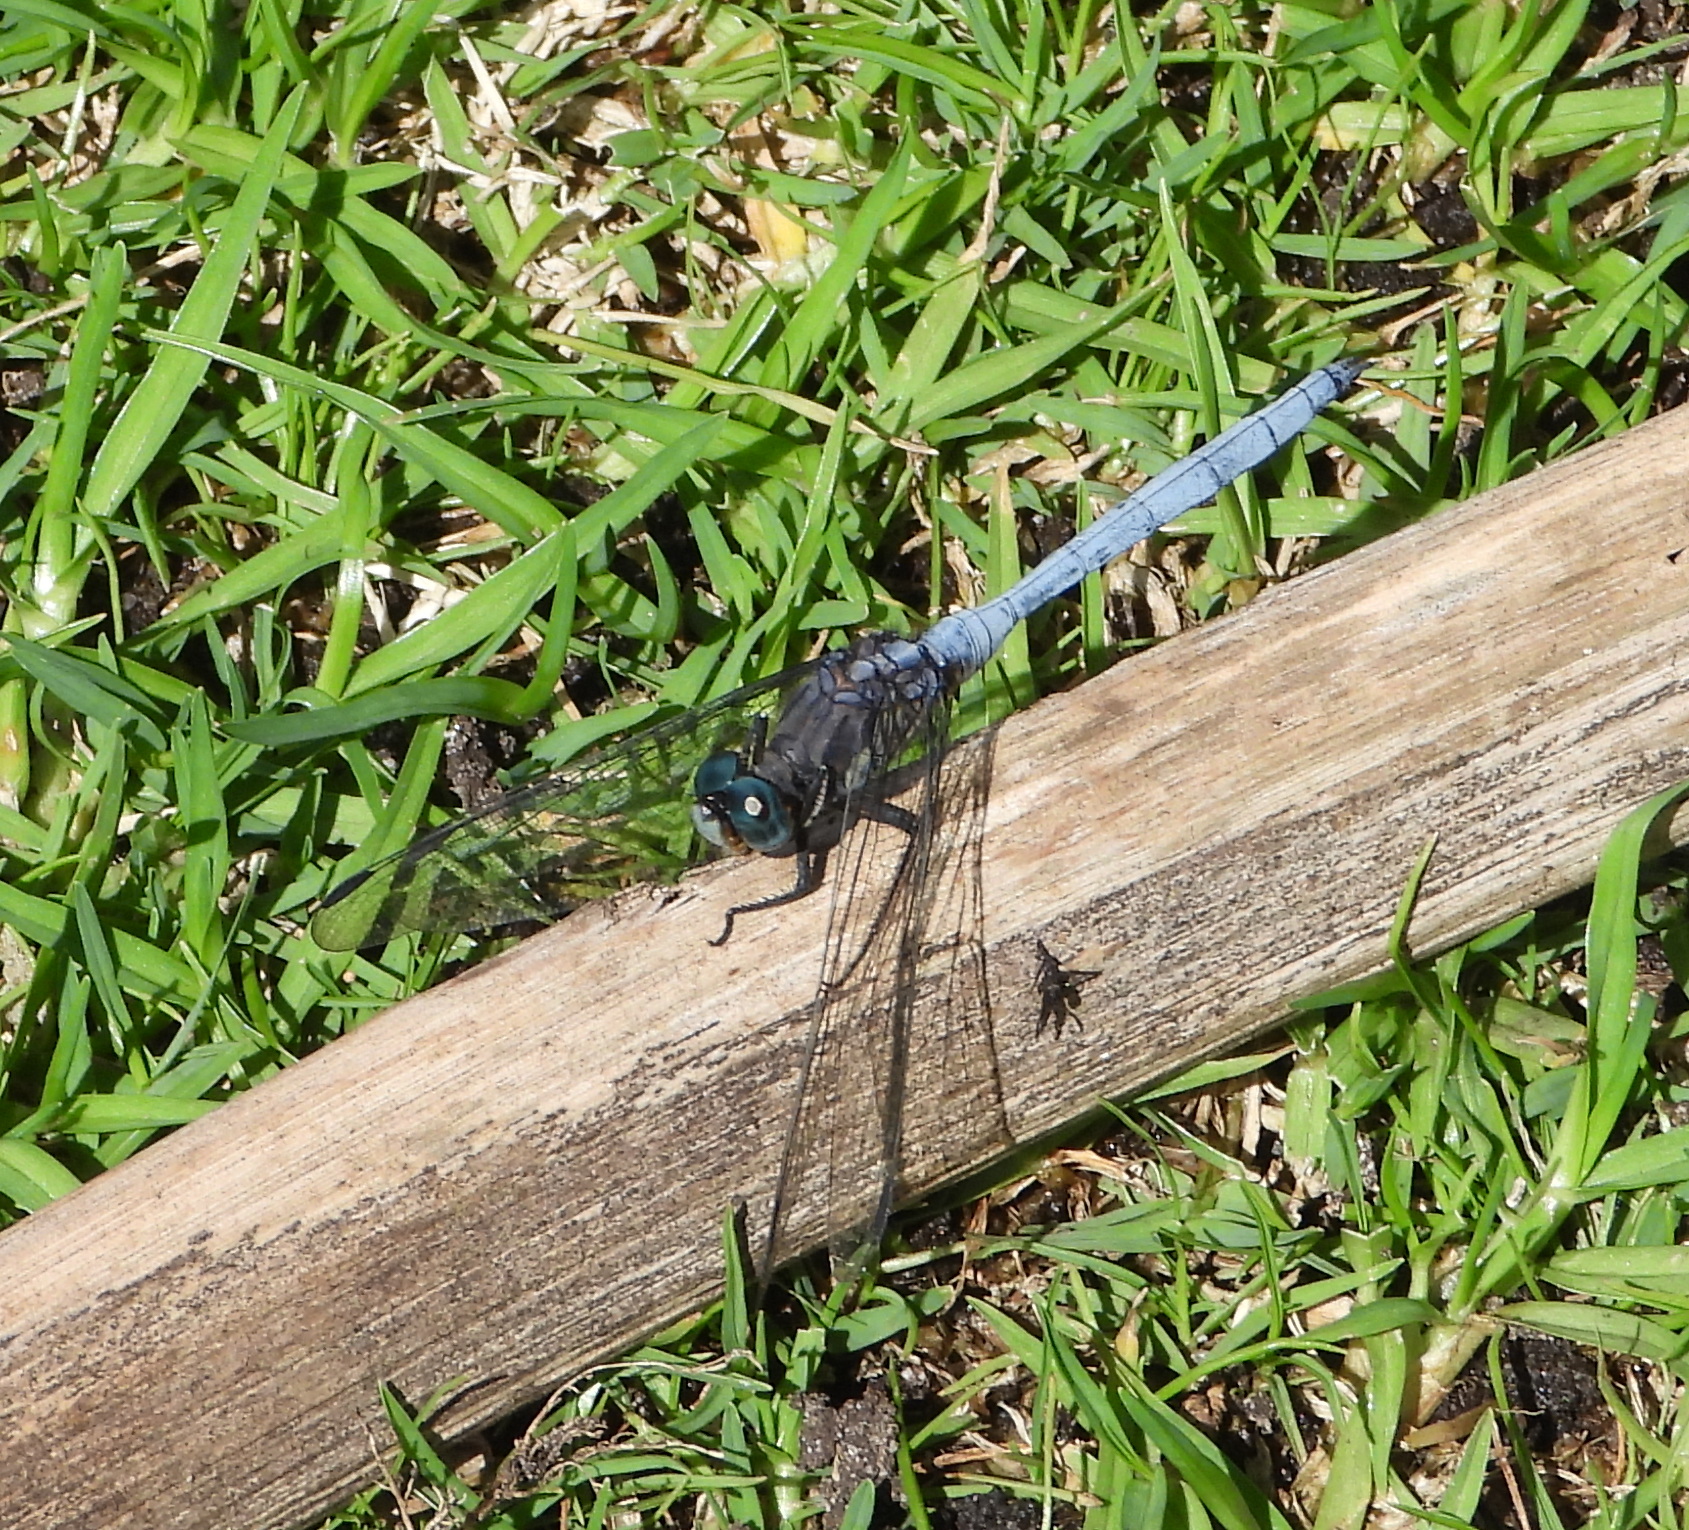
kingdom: Animalia
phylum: Arthropoda
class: Insecta
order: Odonata
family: Libellulidae
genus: Orthetrum
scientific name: Orthetrum julia
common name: Julia skimmer
